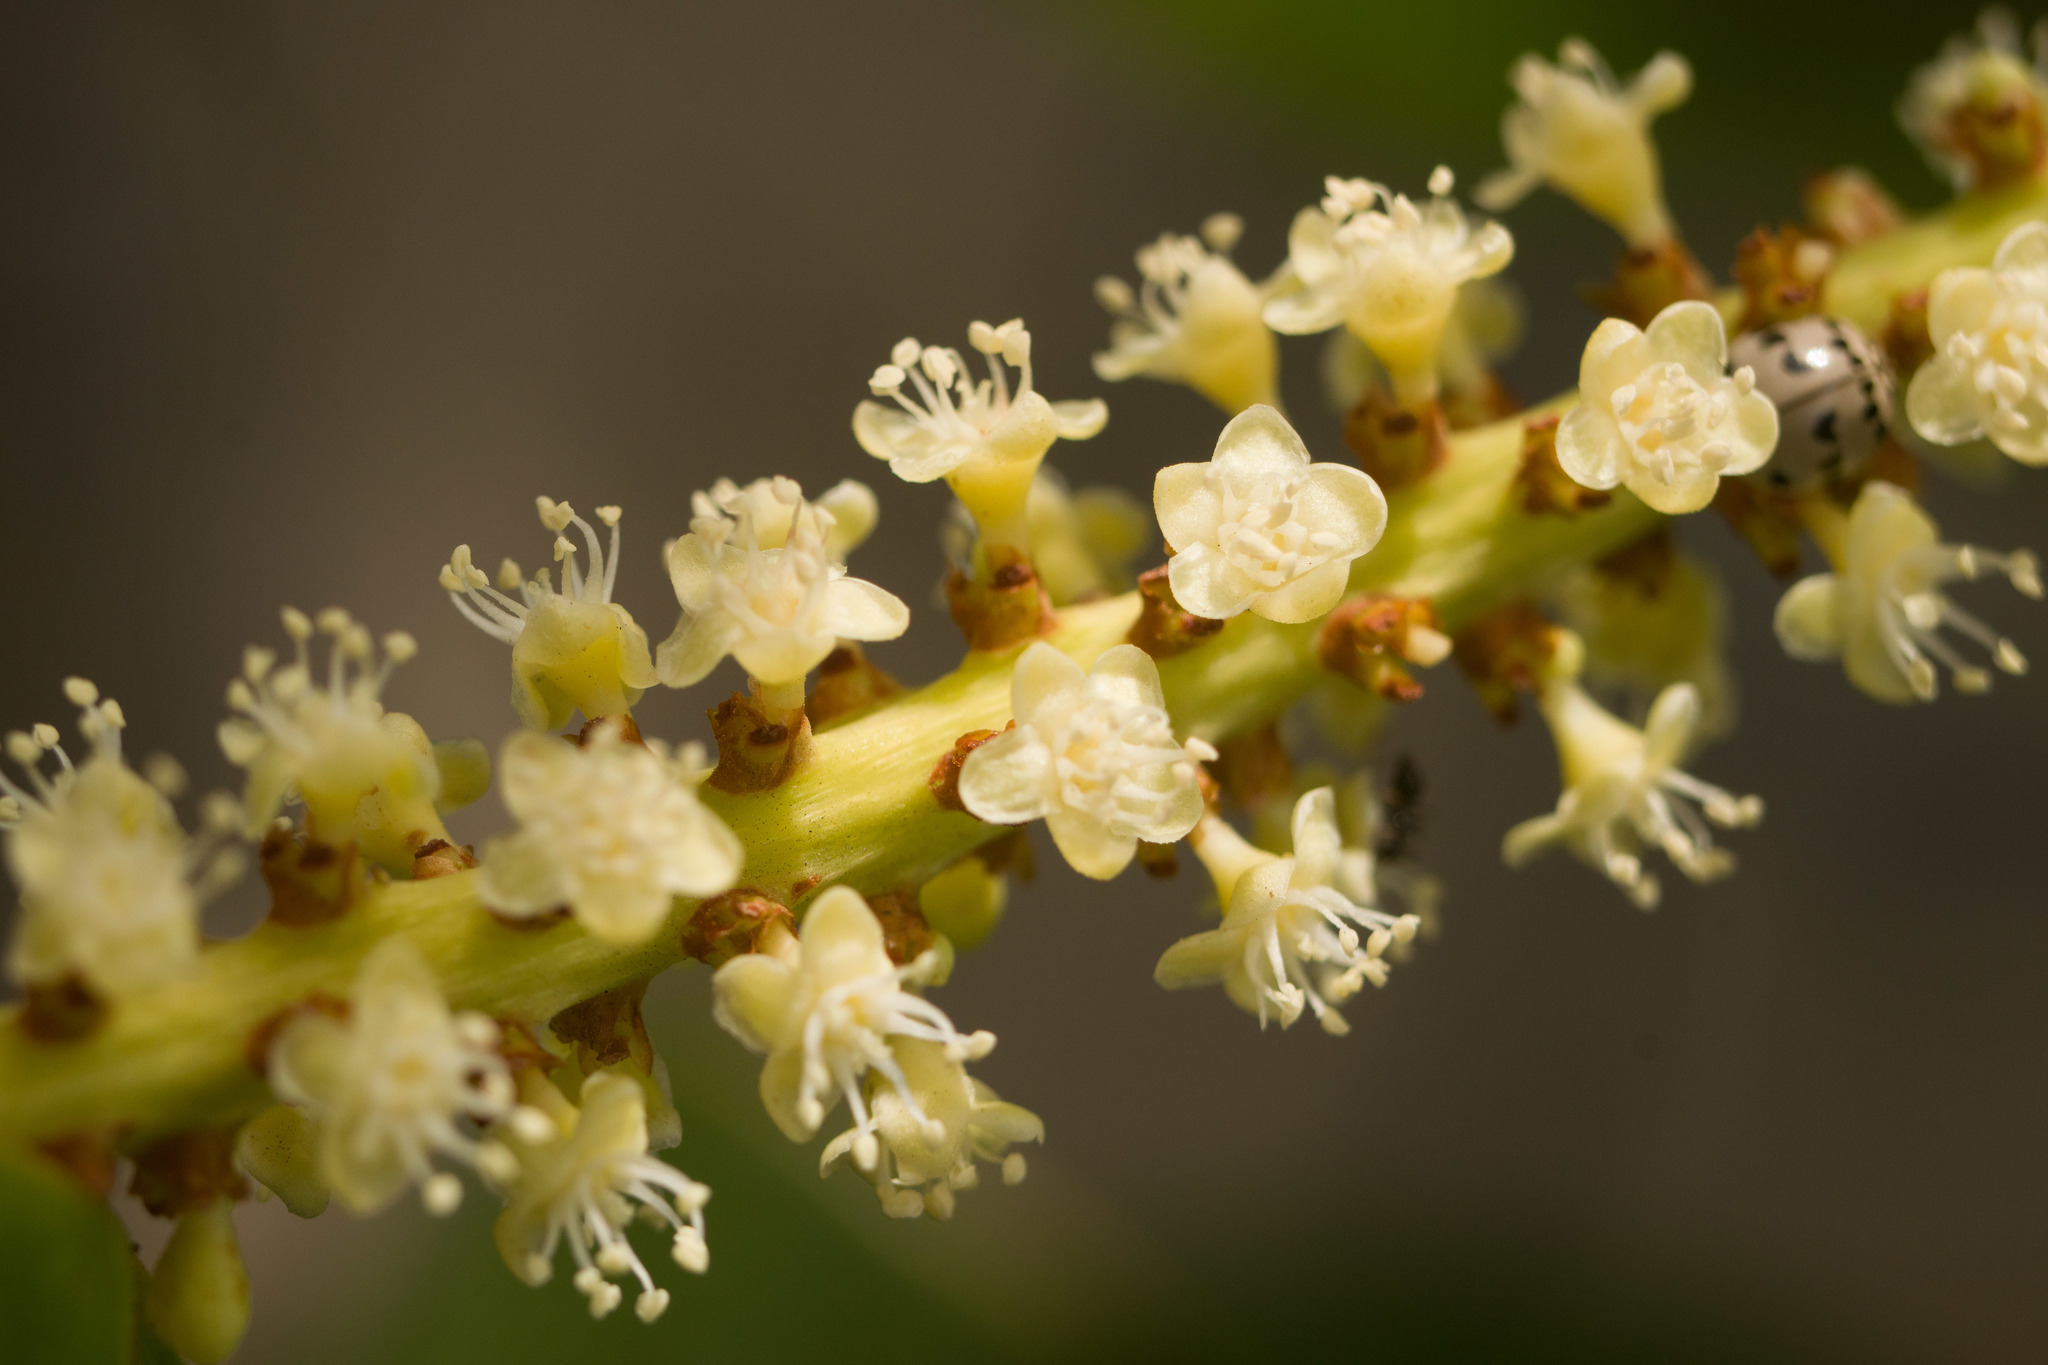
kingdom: Plantae
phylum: Tracheophyta
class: Magnoliopsida
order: Caryophyllales
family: Polygonaceae
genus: Coccoloba
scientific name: Coccoloba uvifera
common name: Seagrape
